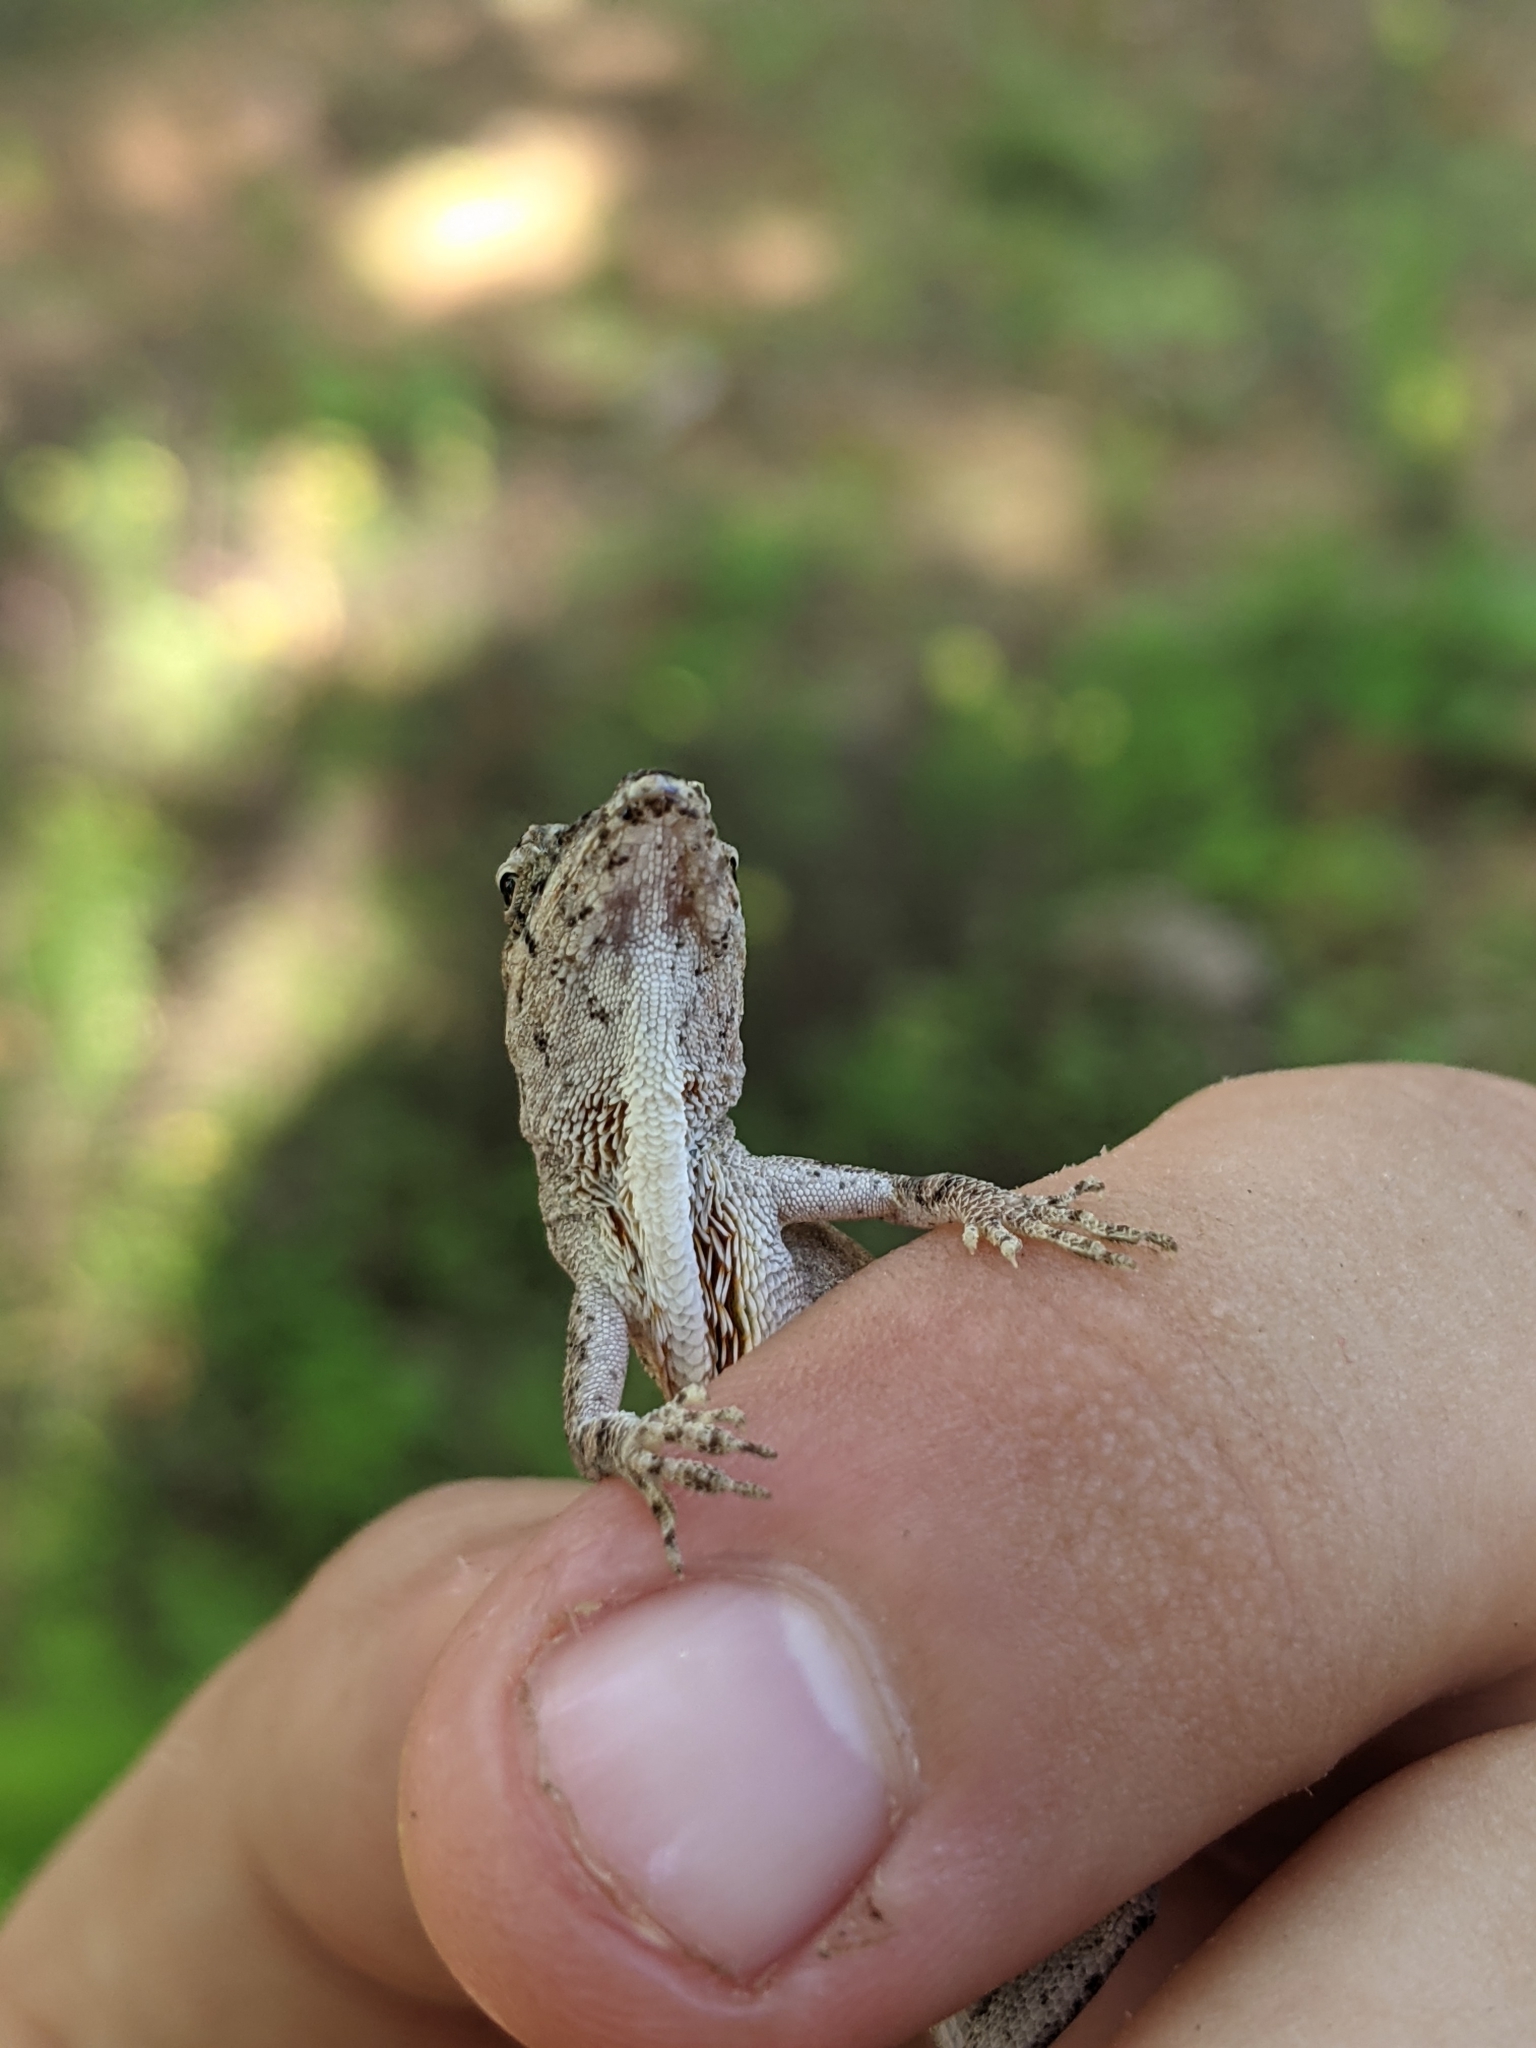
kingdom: Animalia
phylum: Chordata
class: Squamata
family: Dactyloidae
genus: Anolis
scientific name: Anolis nebulosus
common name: Clouded anole
